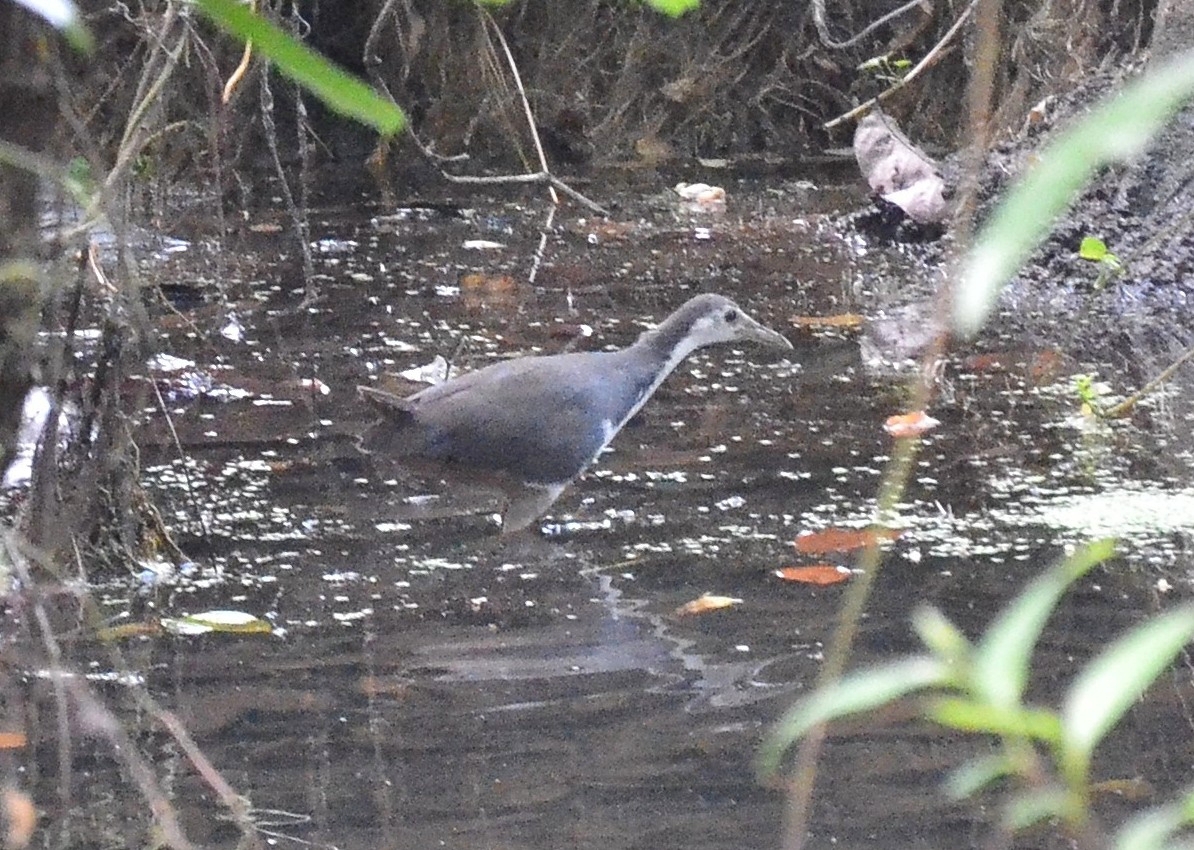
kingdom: Animalia
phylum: Chordata
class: Aves
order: Gruiformes
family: Rallidae
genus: Amaurornis
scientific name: Amaurornis phoenicurus
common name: White-breasted waterhen
